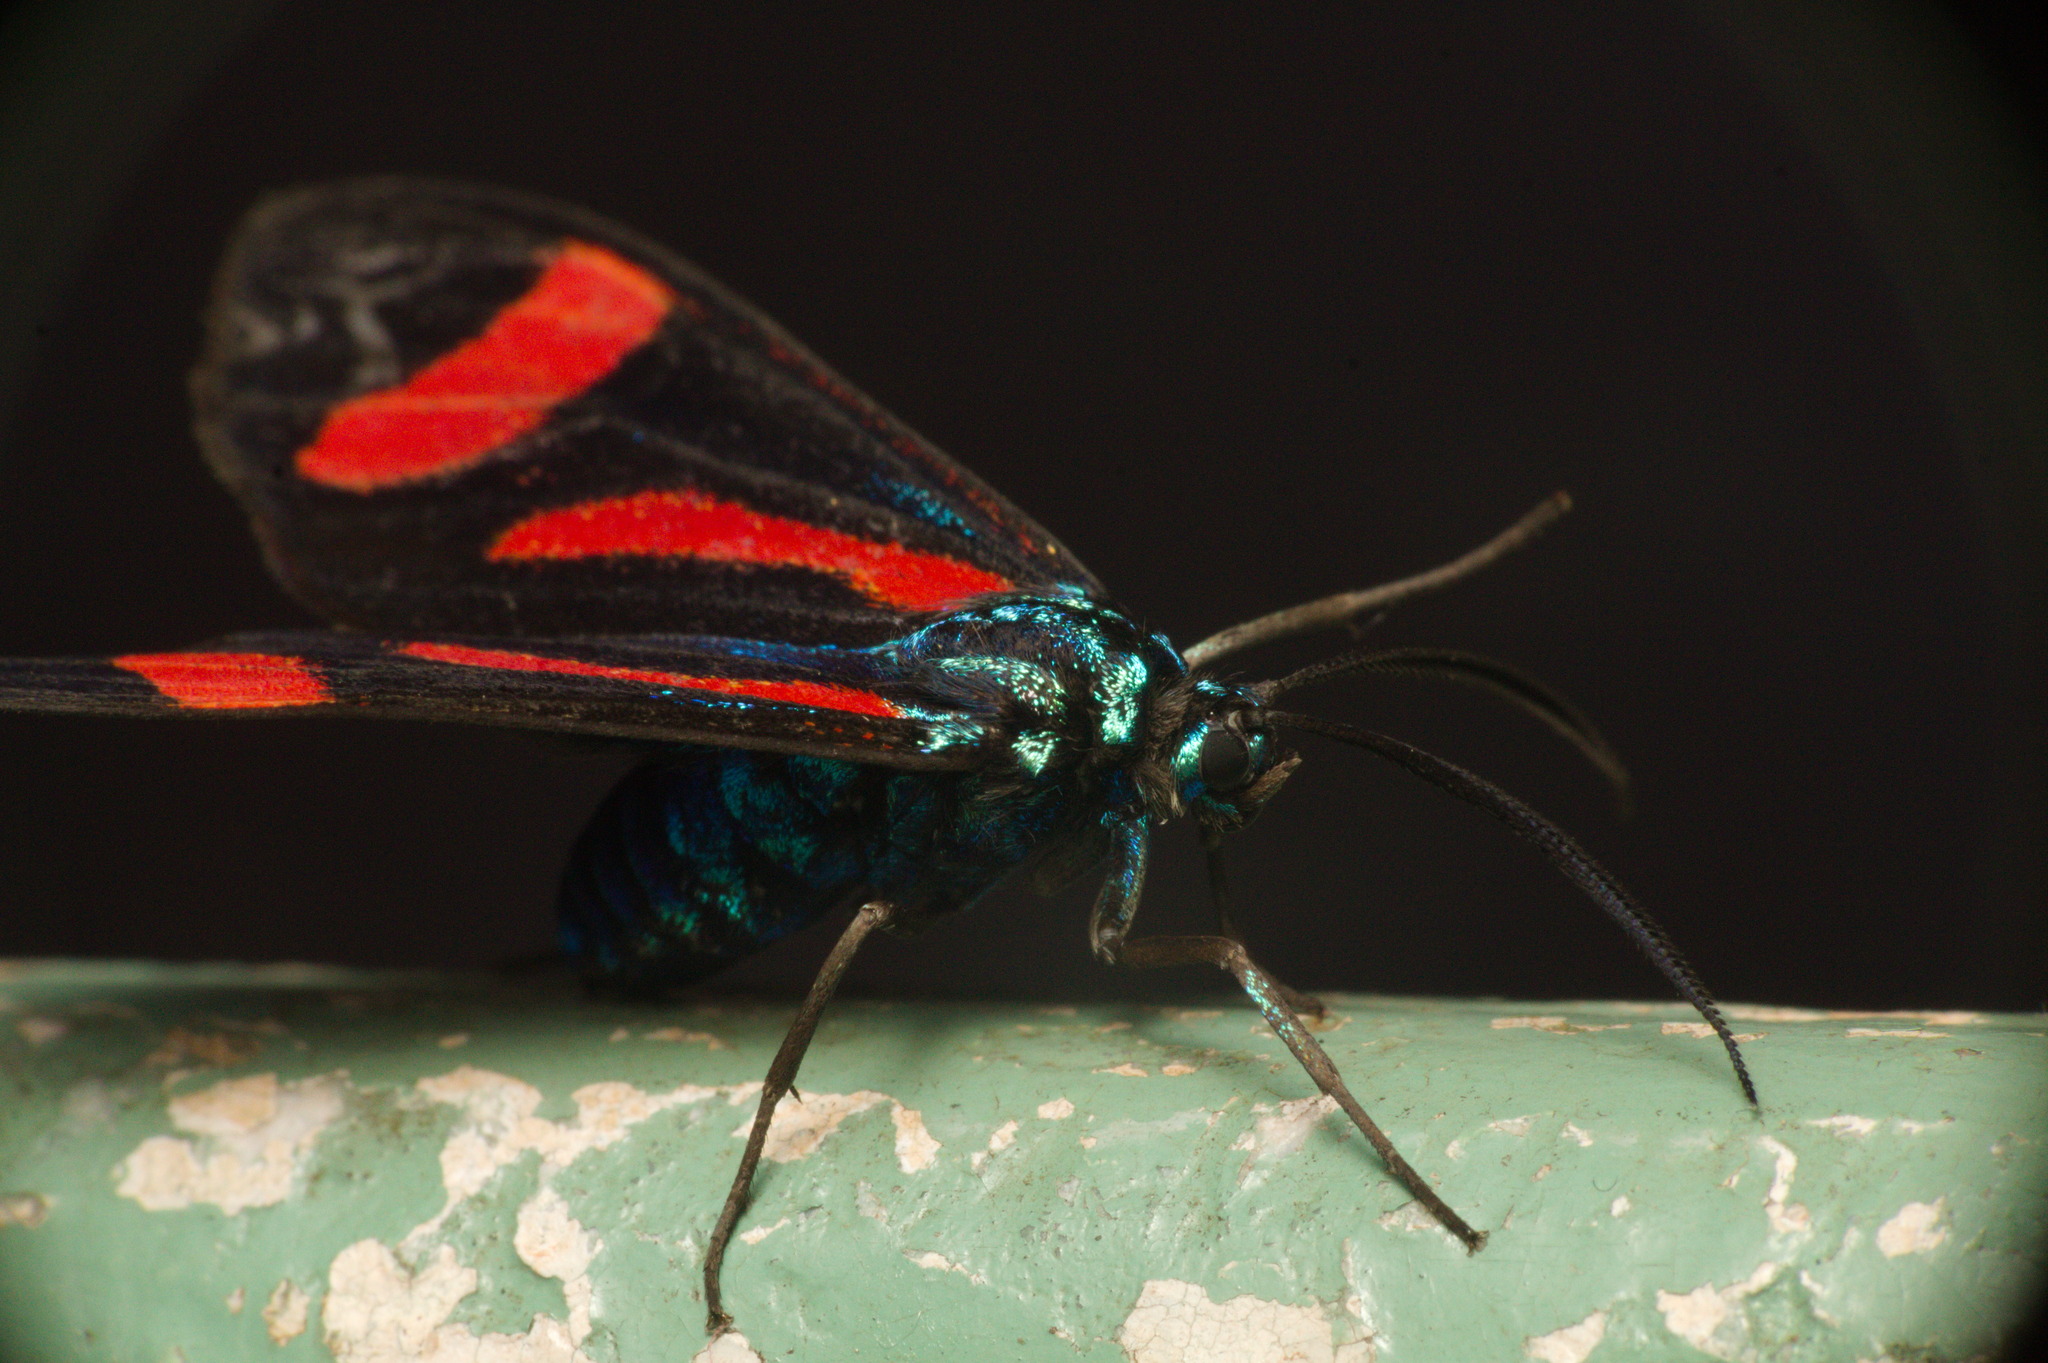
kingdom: Animalia
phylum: Arthropoda
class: Insecta
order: Lepidoptera
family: Erebidae
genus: Cyanopepla
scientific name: Cyanopepla jucunda
